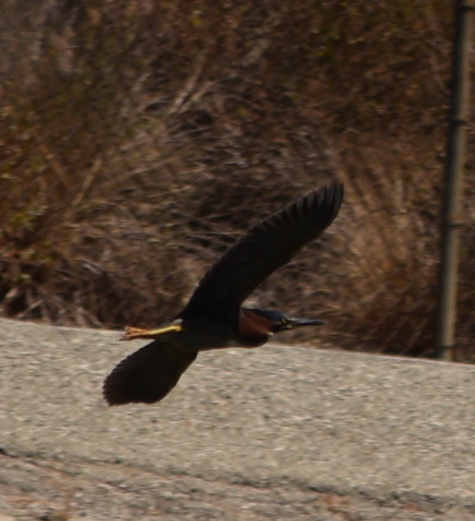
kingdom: Animalia
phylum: Chordata
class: Aves
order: Pelecaniformes
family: Ardeidae
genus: Butorides
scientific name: Butorides virescens
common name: Green heron
